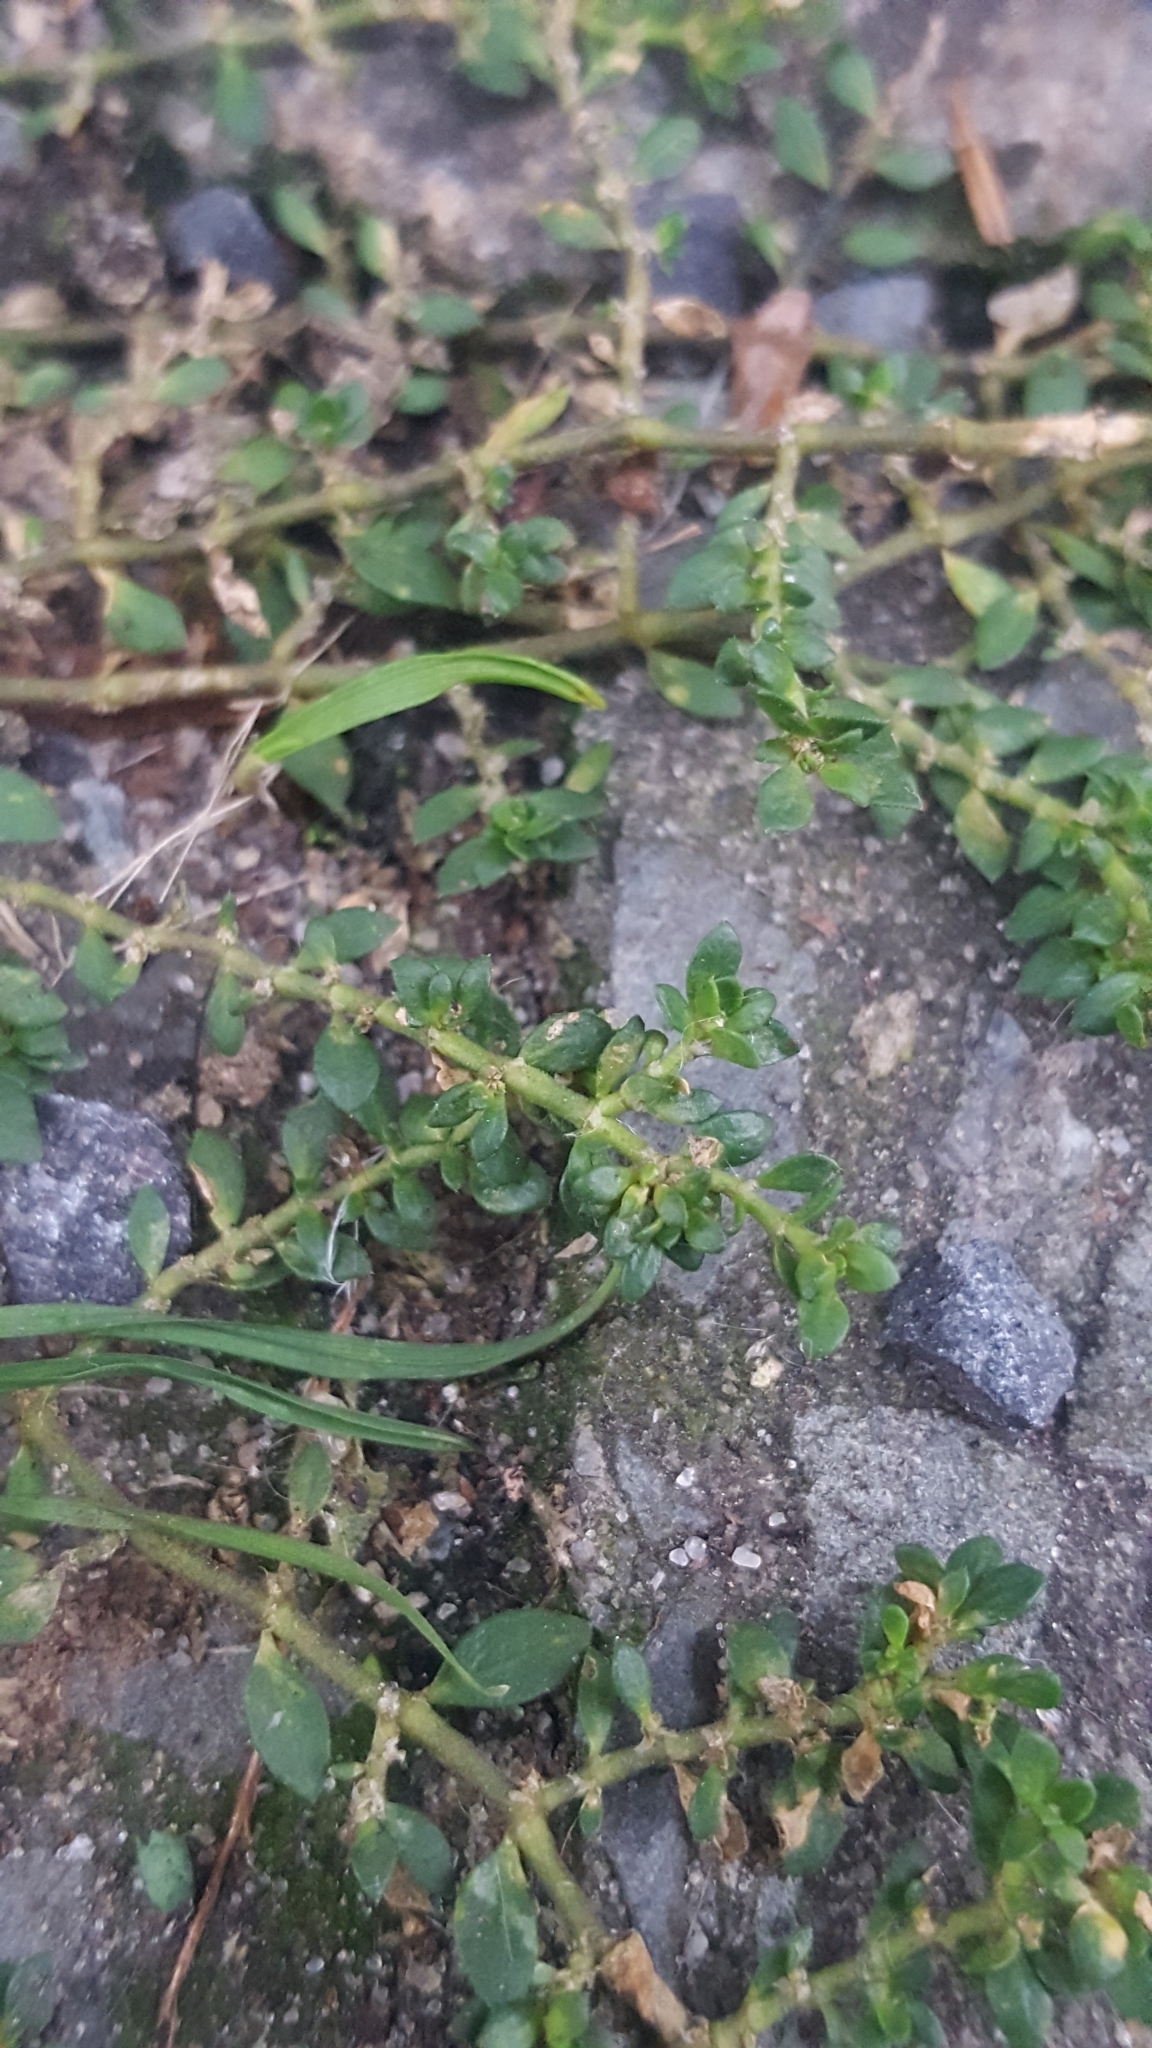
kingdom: Plantae
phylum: Tracheophyta
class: Magnoliopsida
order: Caryophyllales
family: Caryophyllaceae
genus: Herniaria
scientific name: Herniaria glabra
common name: Smooth rupturewort
